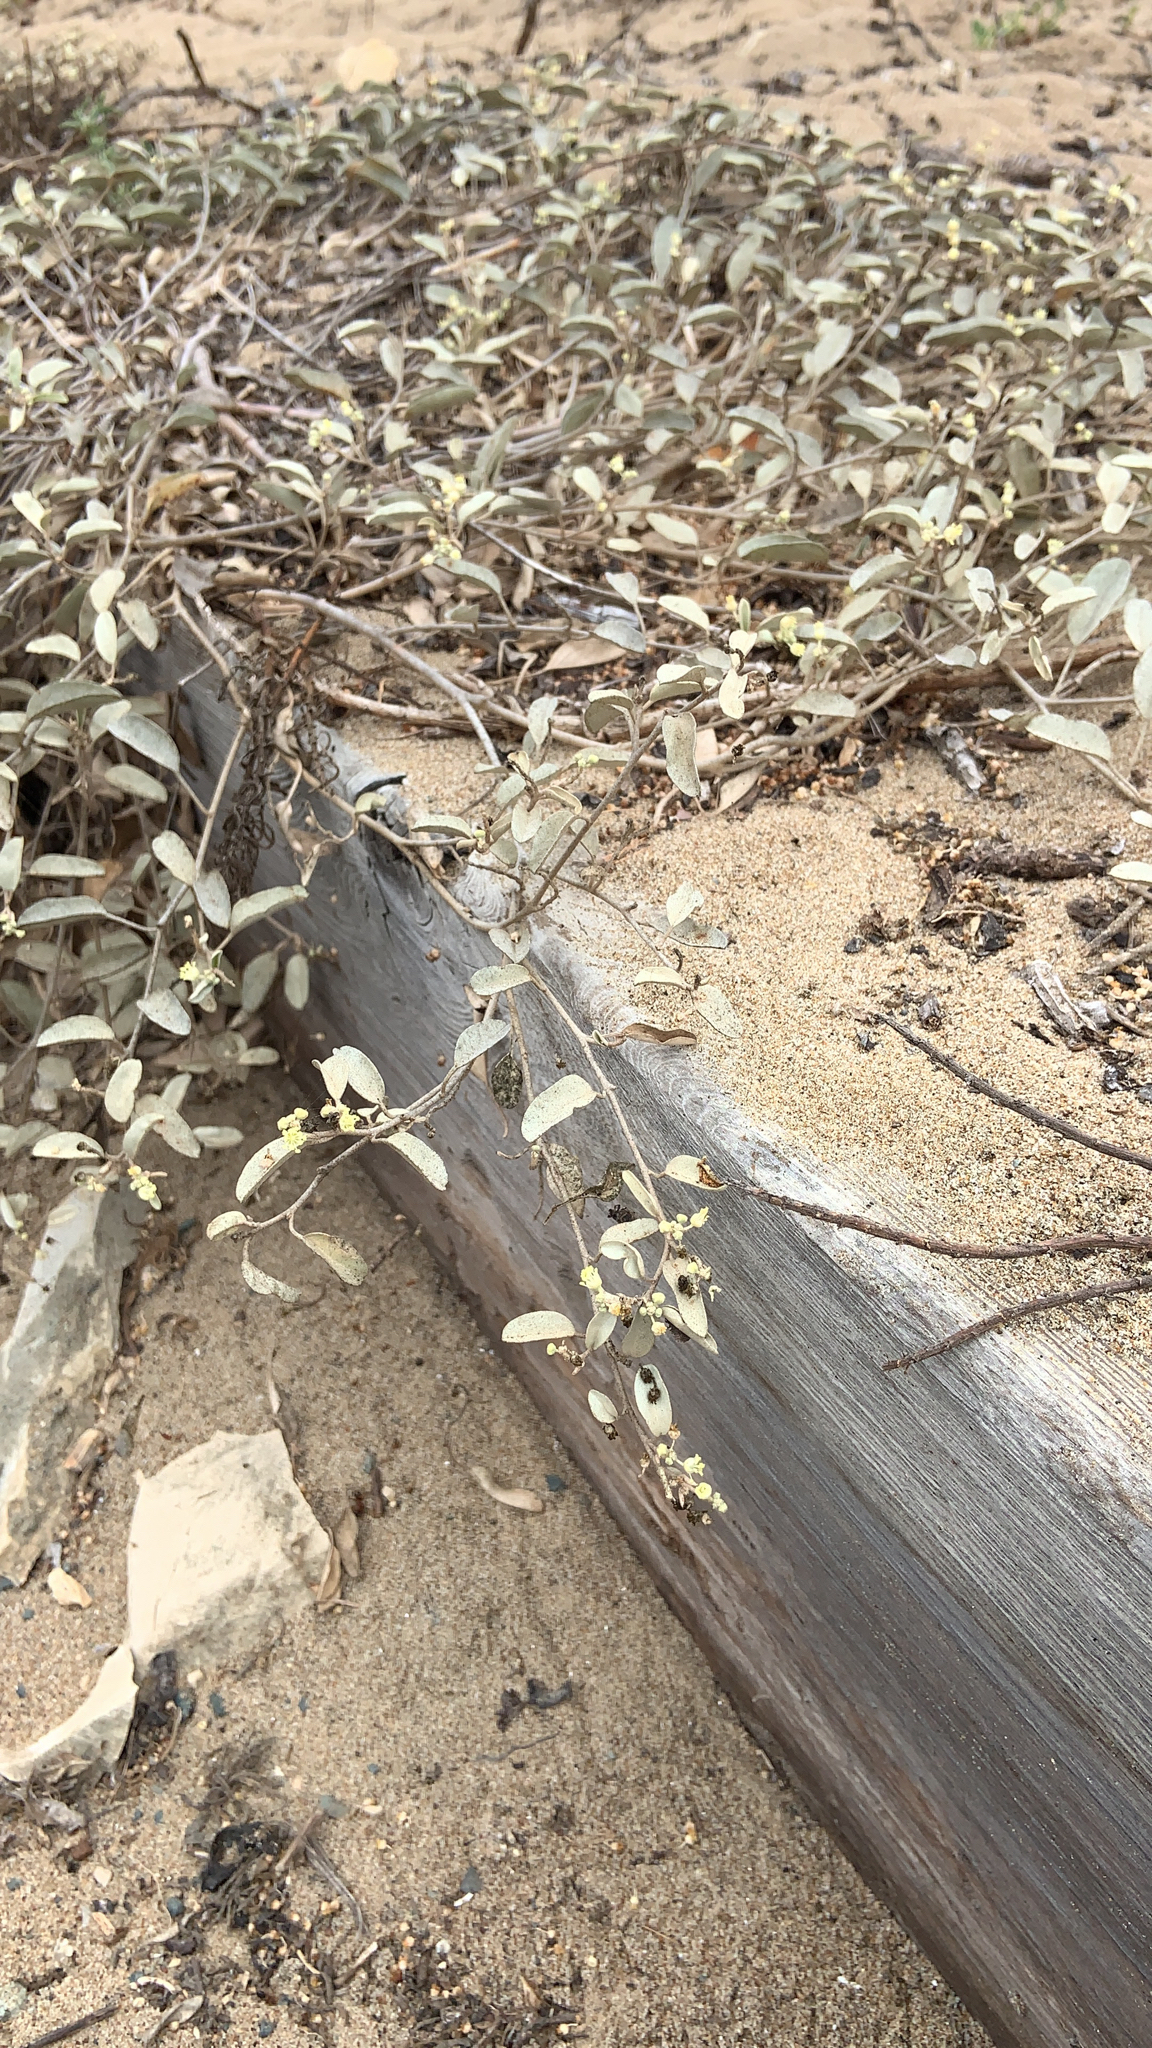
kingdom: Plantae
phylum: Tracheophyta
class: Magnoliopsida
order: Malpighiales
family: Euphorbiaceae
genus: Croton
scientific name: Croton californicus
